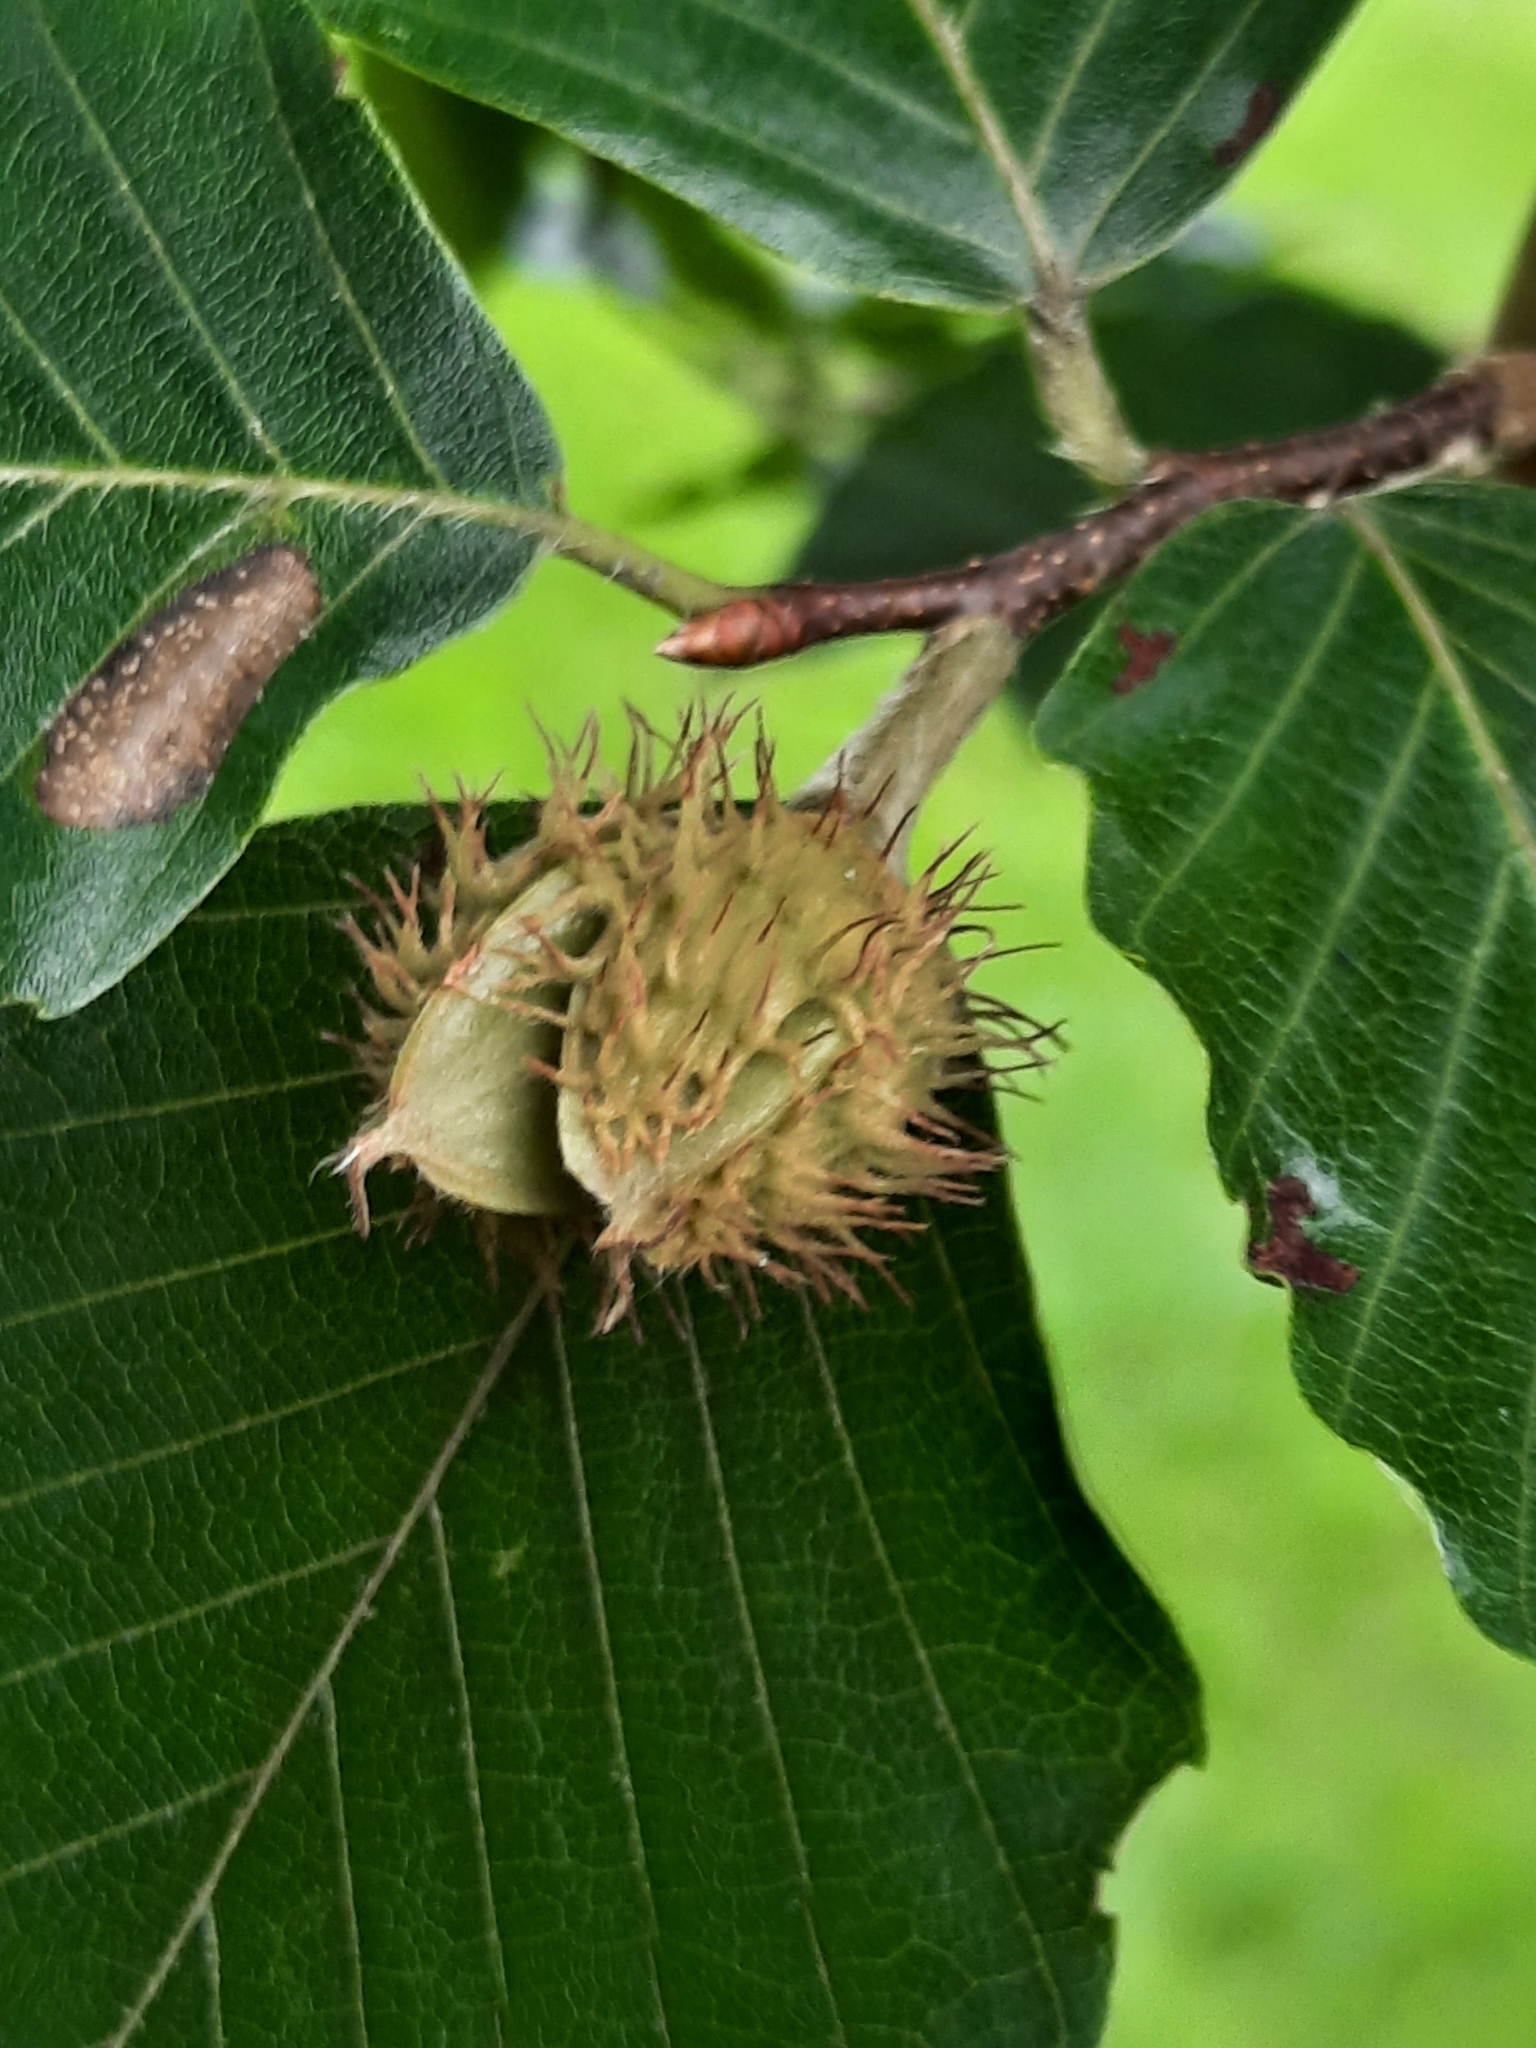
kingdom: Plantae
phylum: Tracheophyta
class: Magnoliopsida
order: Fagales
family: Fagaceae
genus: Fagus
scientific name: Fagus grandifolia
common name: American beech
